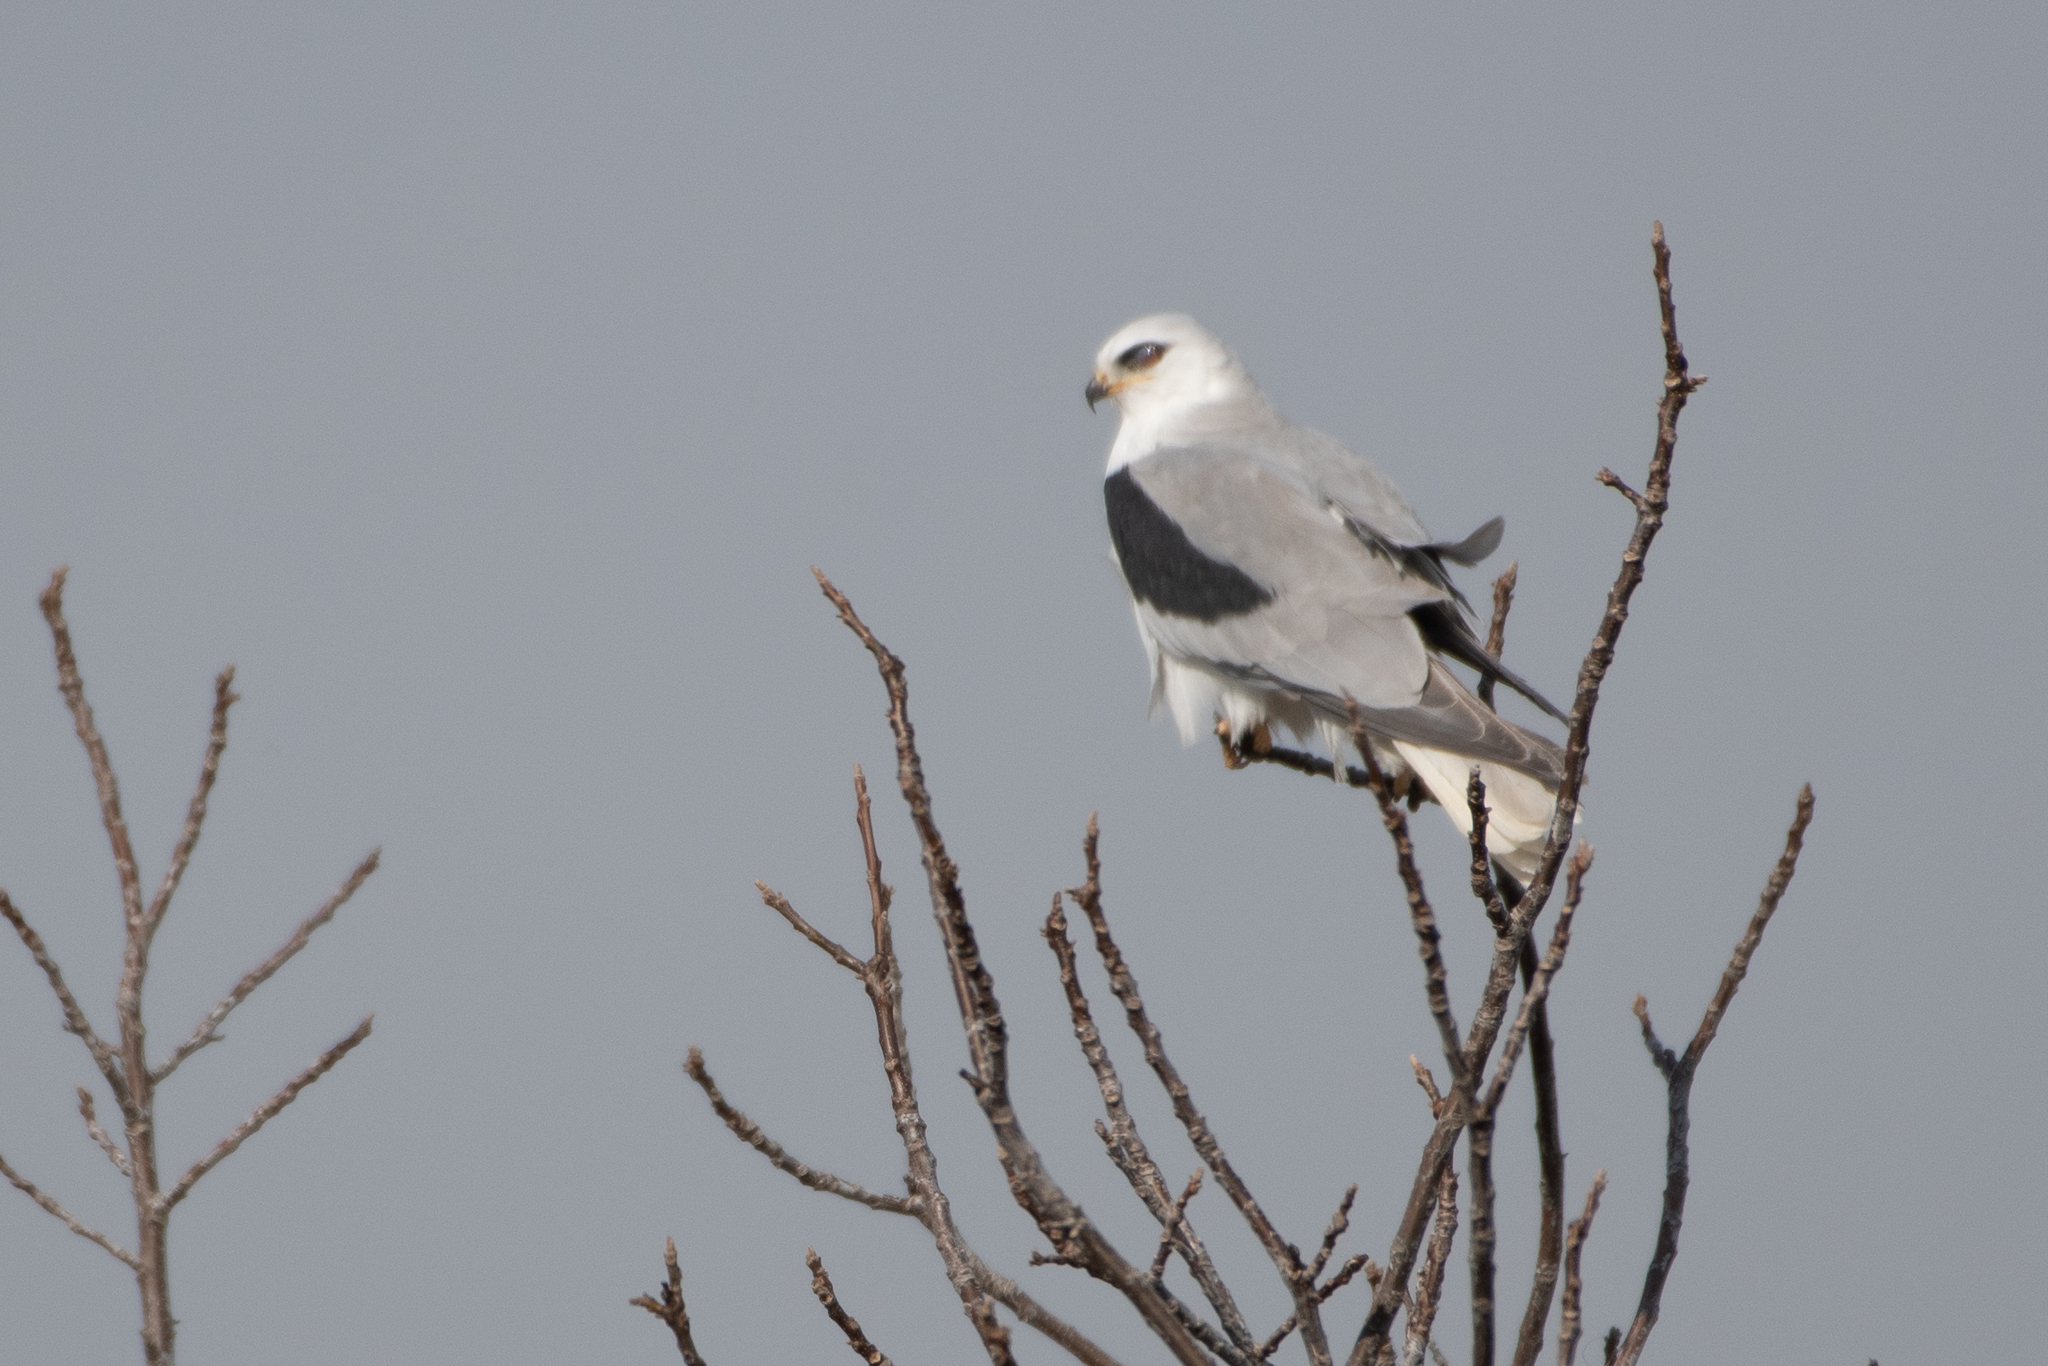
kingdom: Animalia
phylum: Chordata
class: Aves
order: Accipitriformes
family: Accipitridae
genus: Elanus
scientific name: Elanus leucurus
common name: White-tailed kite
